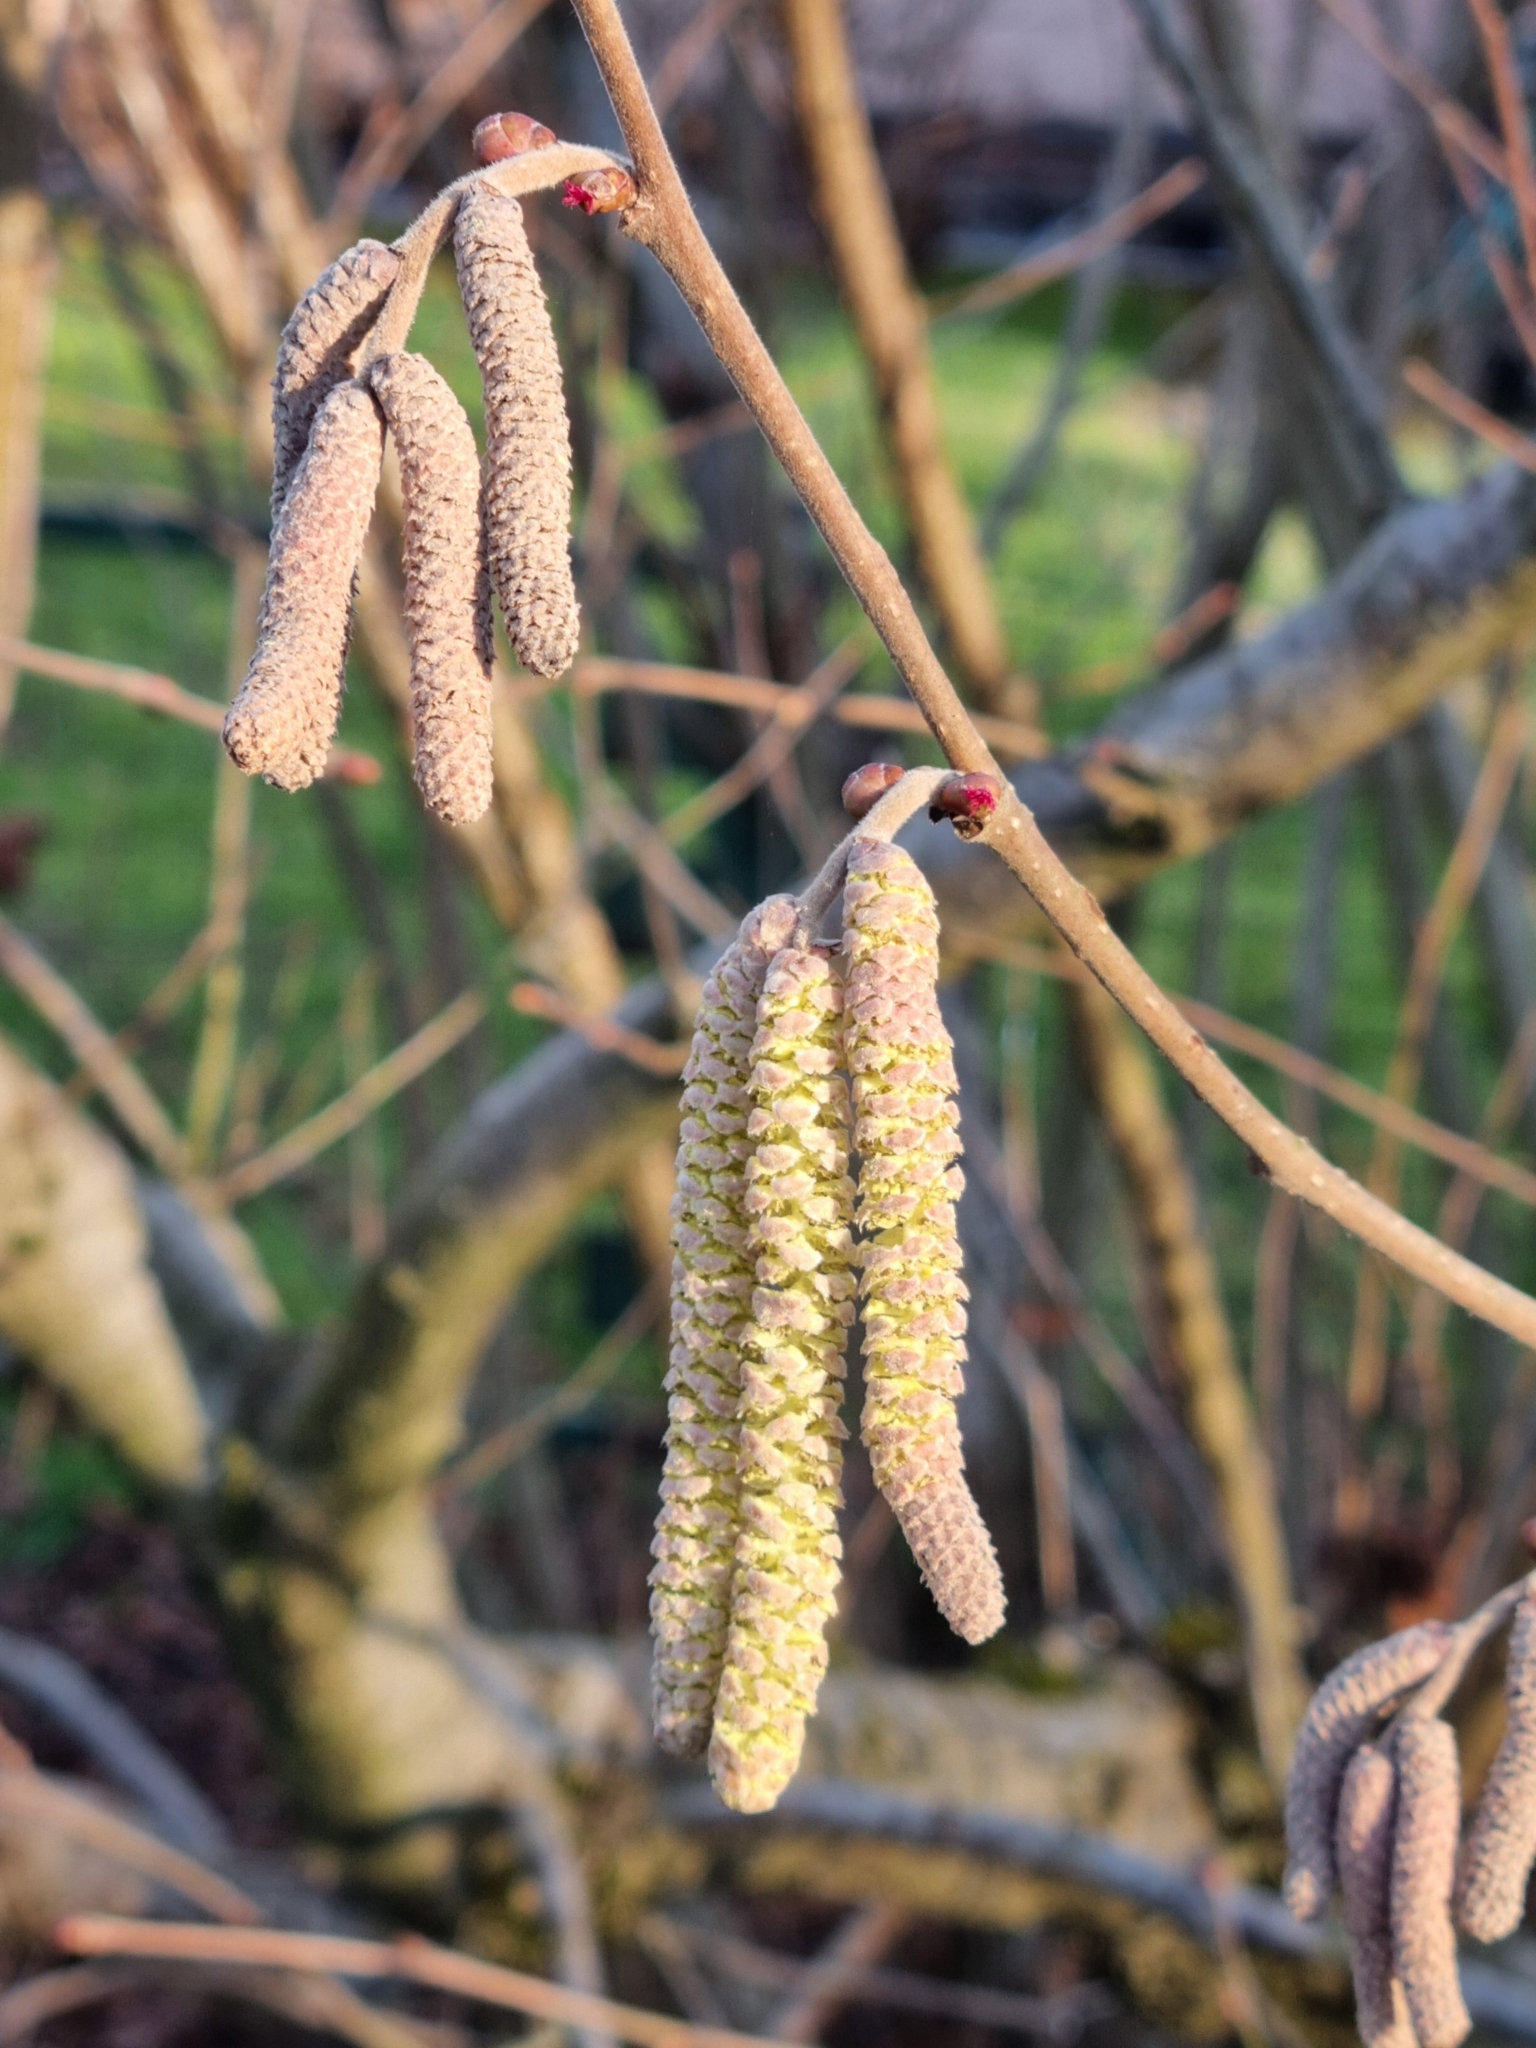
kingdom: Plantae
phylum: Tracheophyta
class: Magnoliopsida
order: Fagales
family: Betulaceae
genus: Corylus
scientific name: Corylus avellana
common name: European hazel
